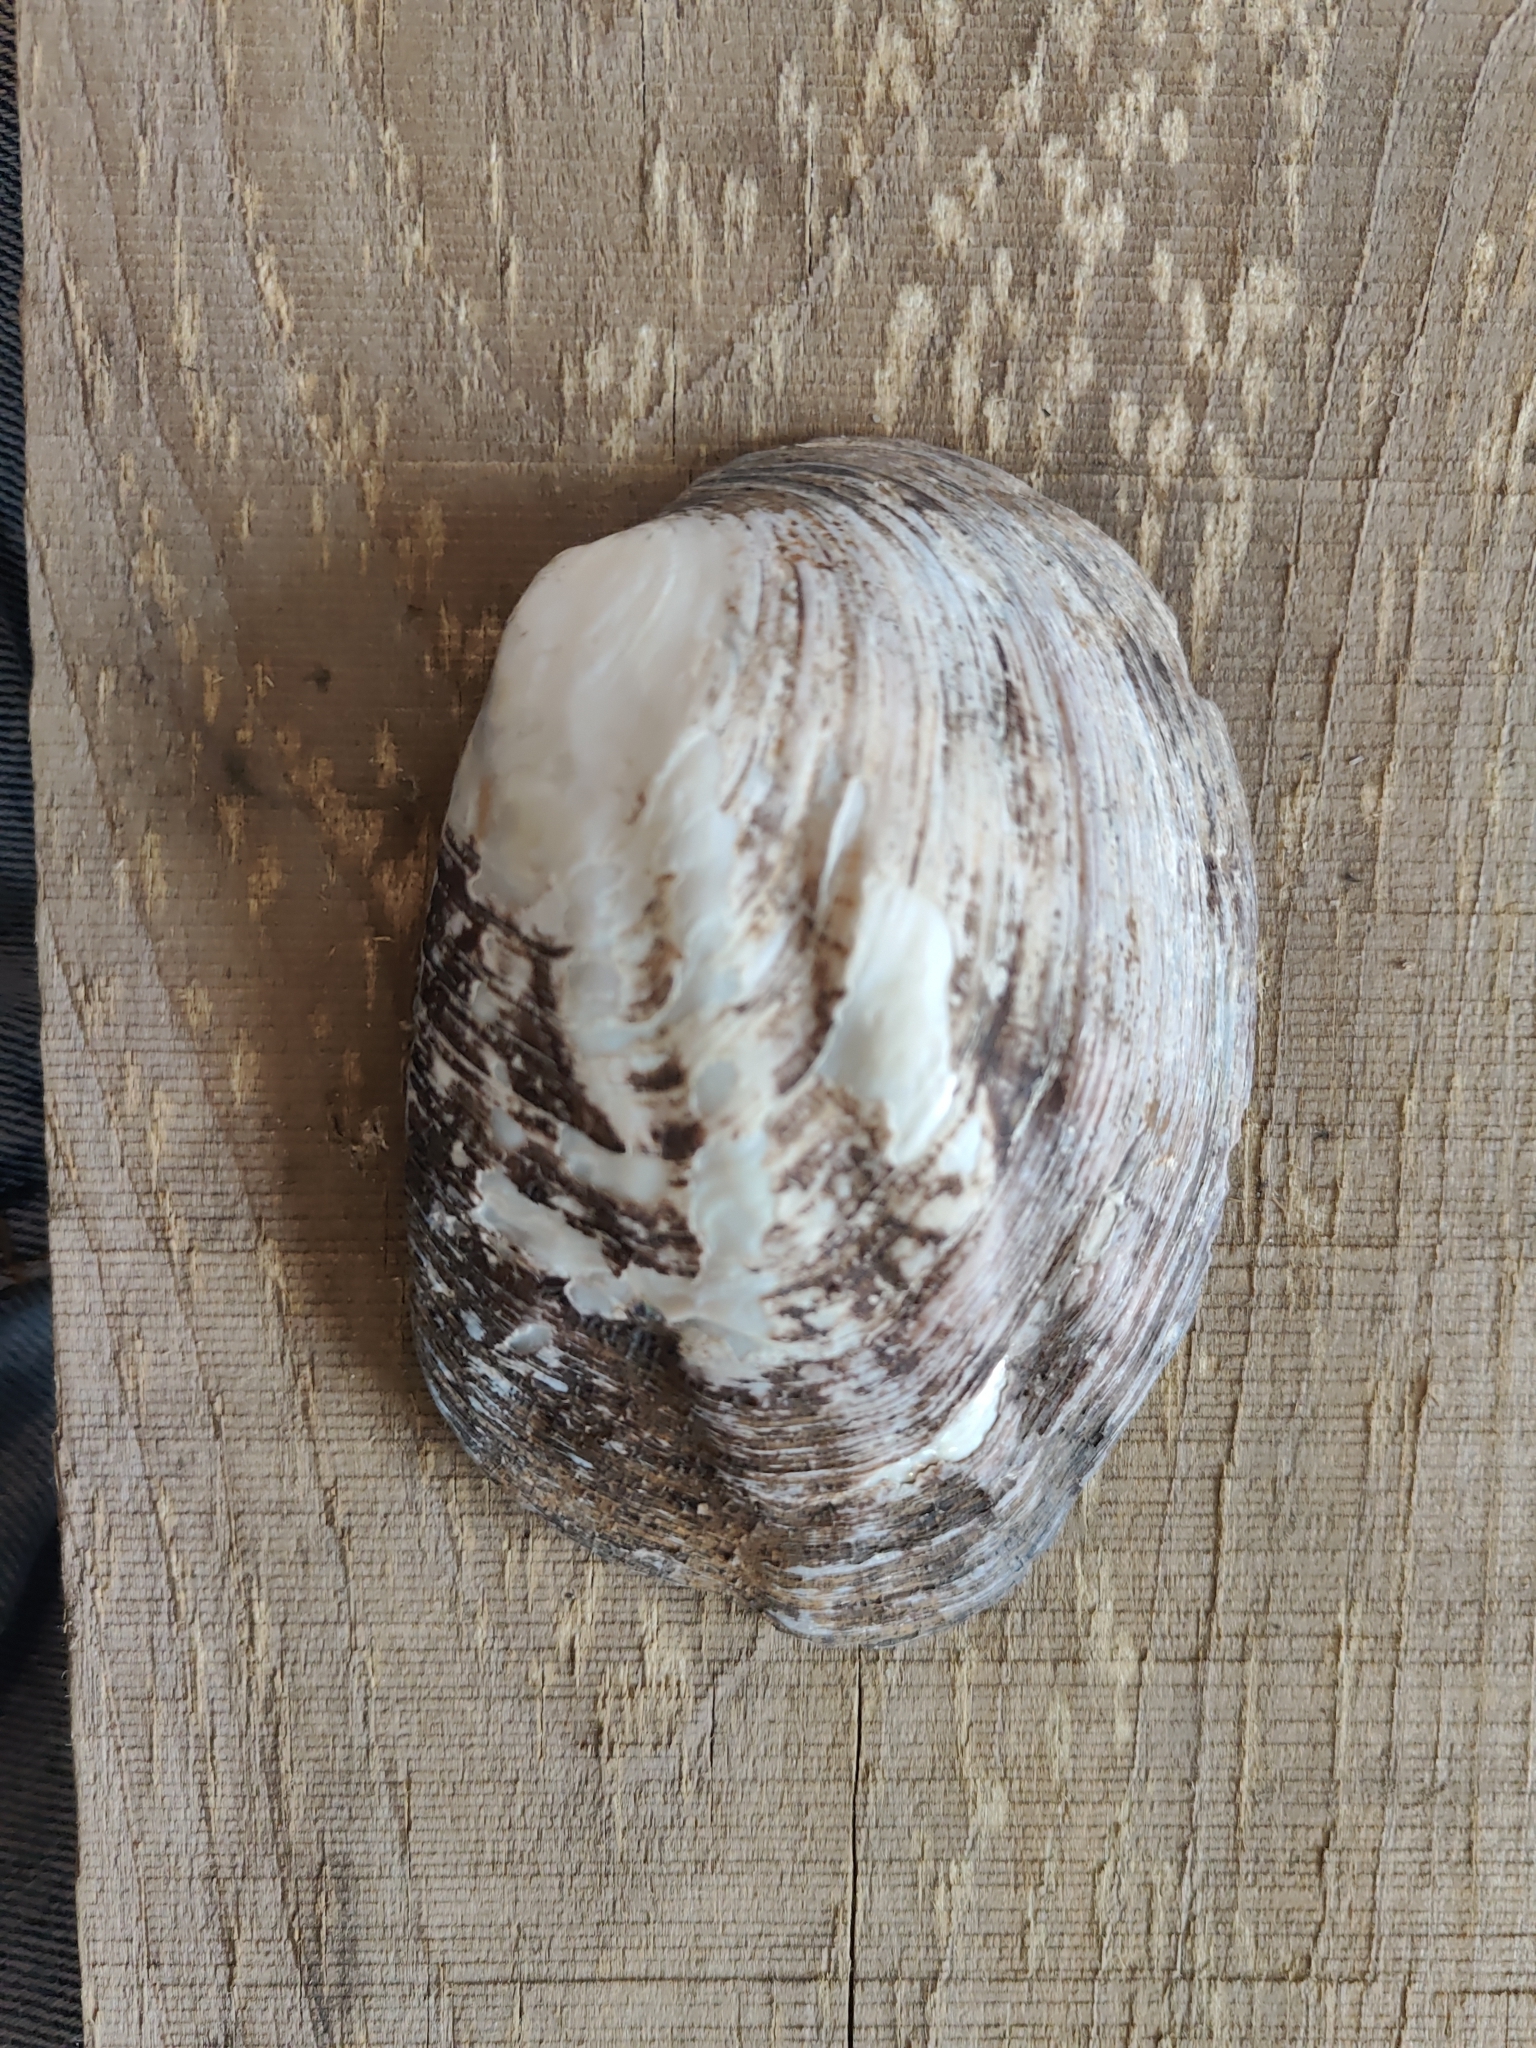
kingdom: Animalia
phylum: Mollusca
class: Bivalvia
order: Unionida
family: Unionidae
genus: Amblema
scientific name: Amblema plicata
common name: Threeridge
